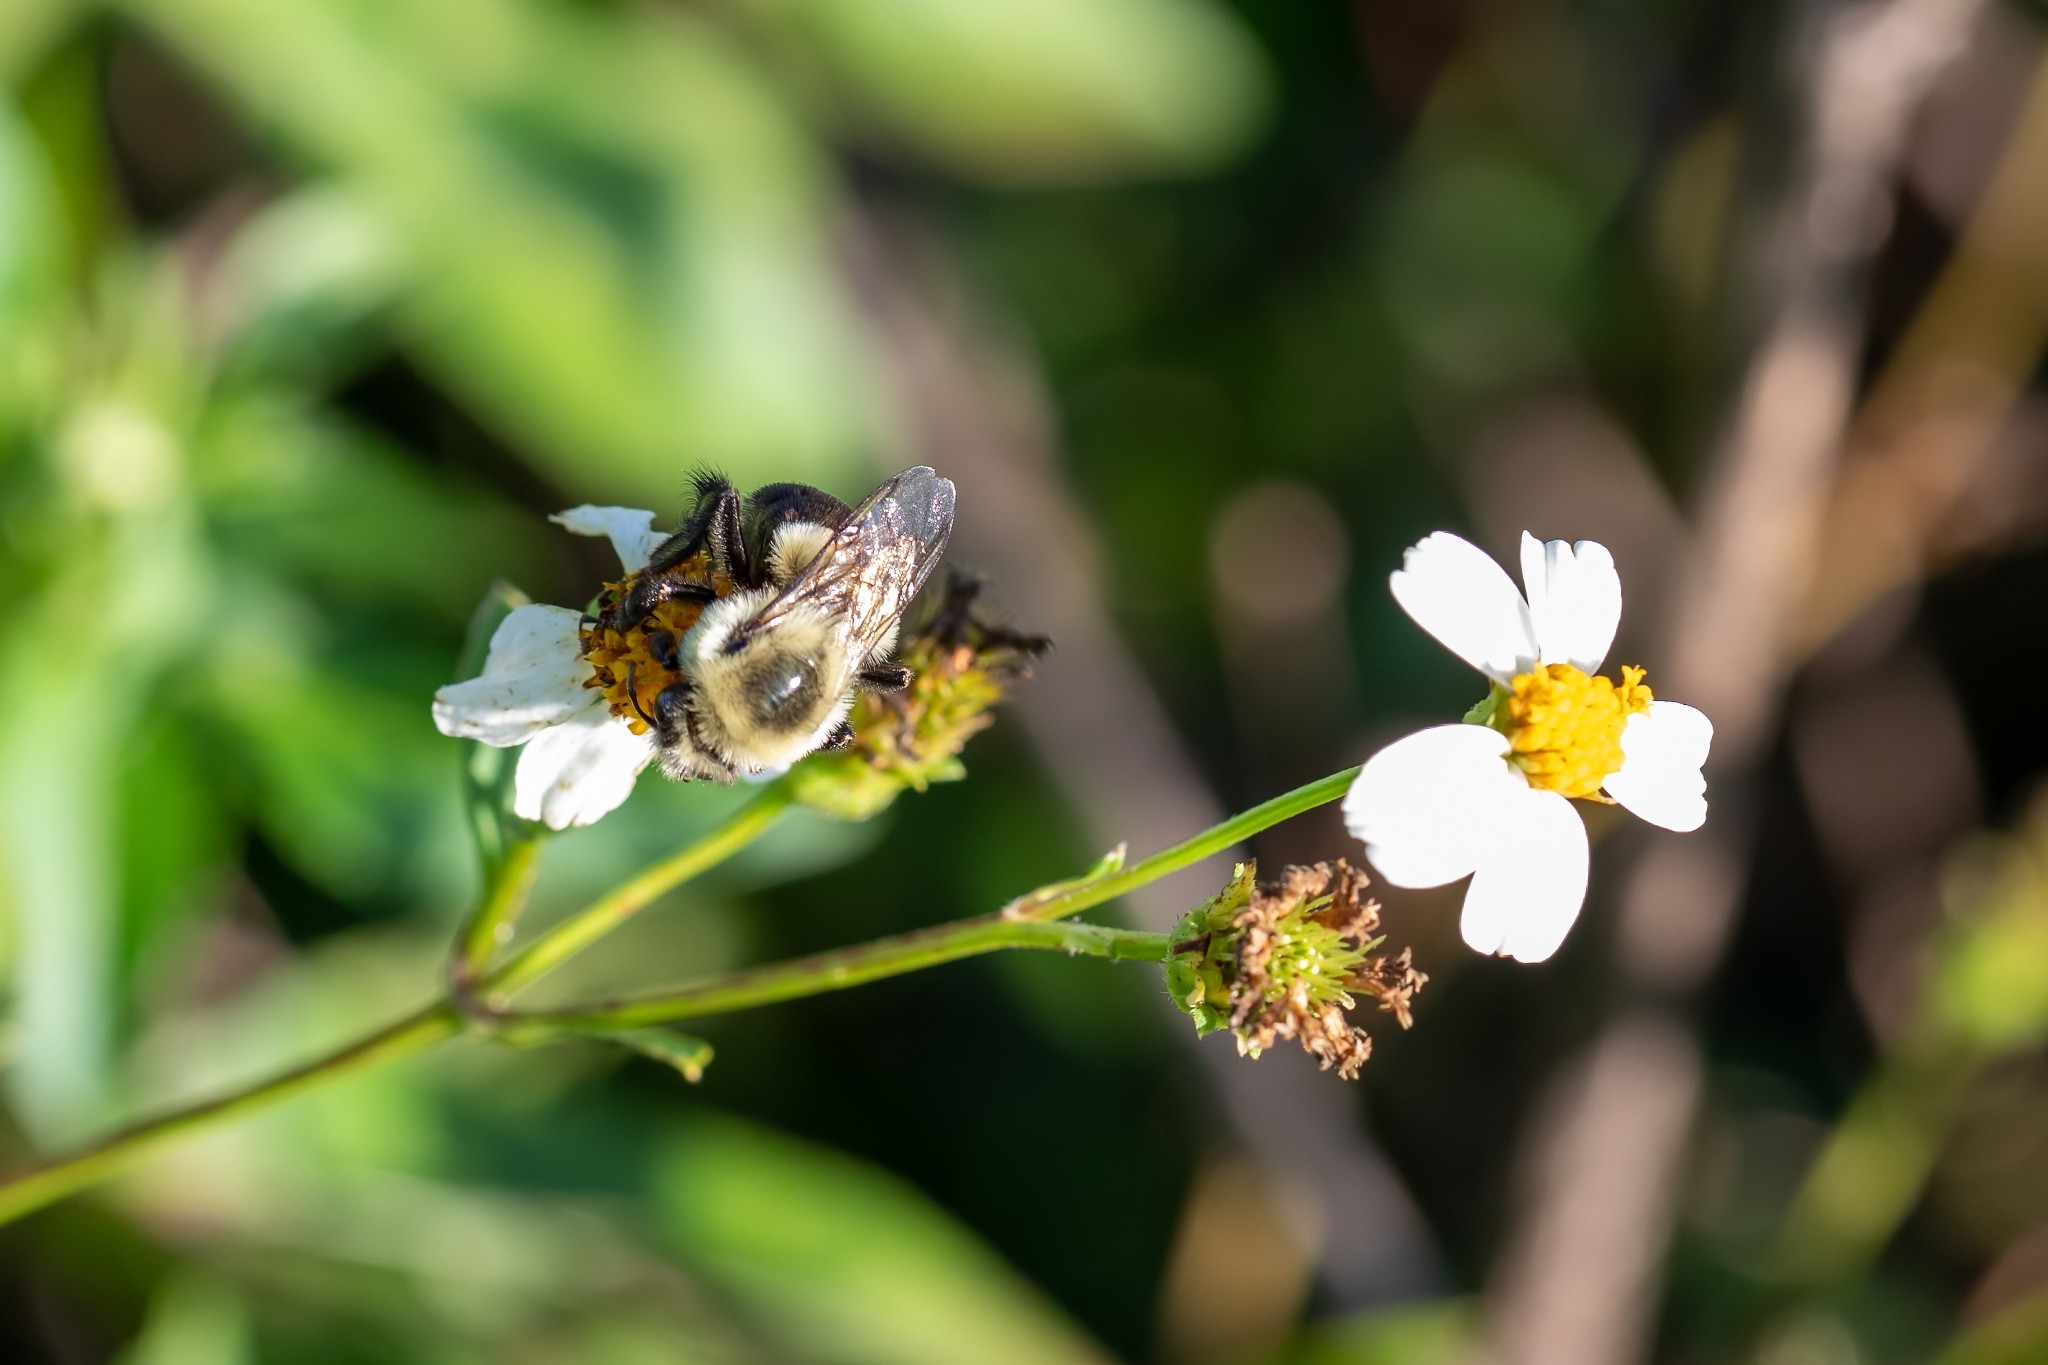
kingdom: Animalia
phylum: Arthropoda
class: Insecta
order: Hymenoptera
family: Apidae
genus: Bombus
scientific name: Bombus impatiens
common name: Common eastern bumble bee
